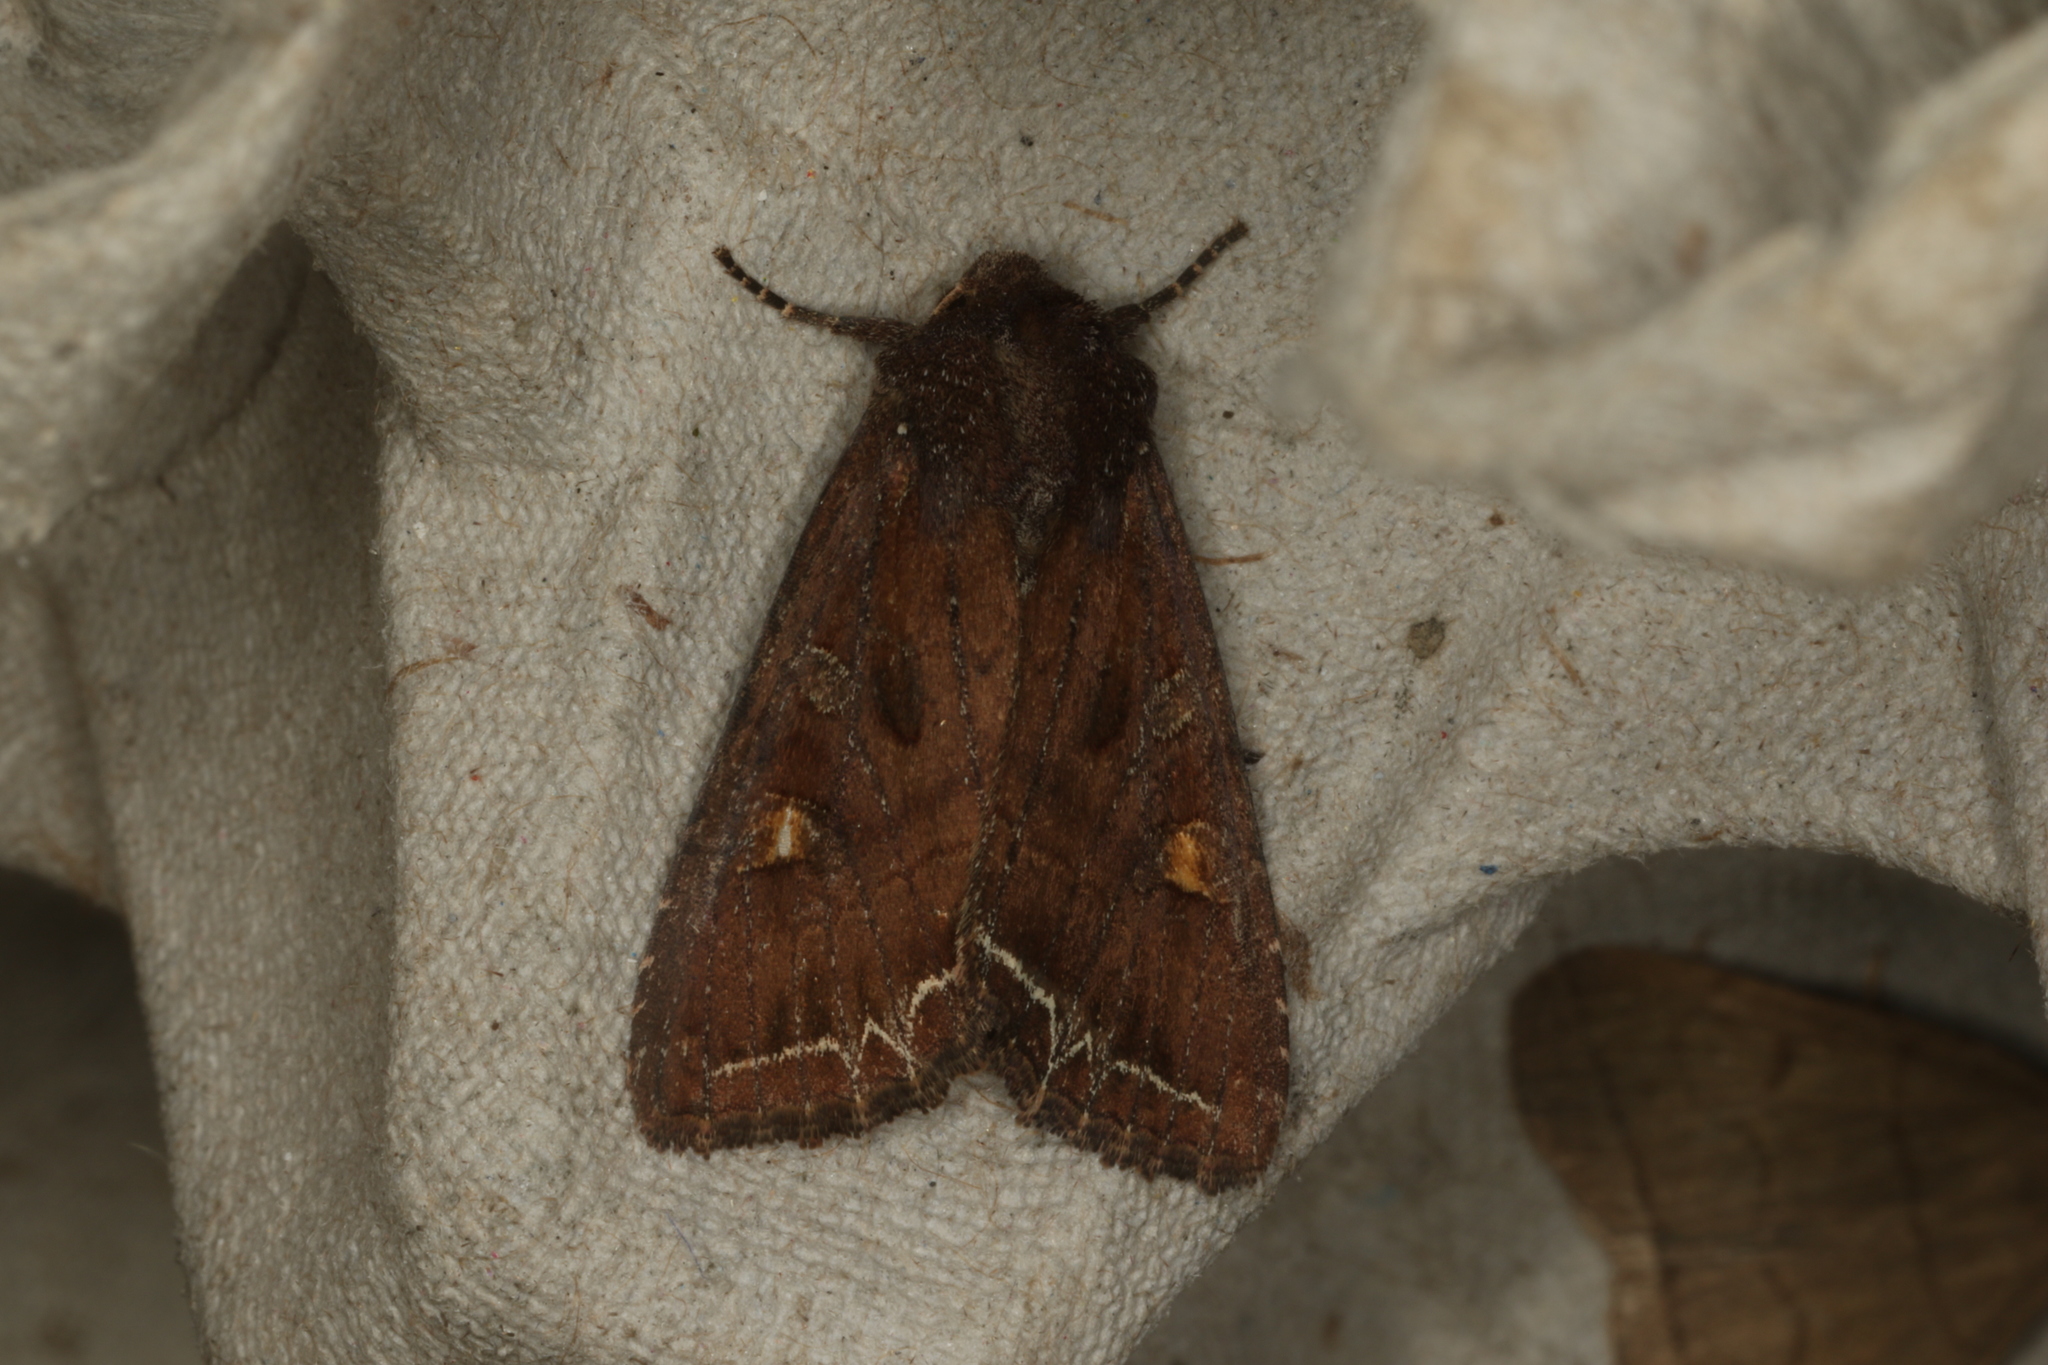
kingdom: Animalia
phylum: Arthropoda
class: Insecta
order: Lepidoptera
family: Noctuidae
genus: Lacanobia
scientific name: Lacanobia oleracea
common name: Bright-line brown-eye
